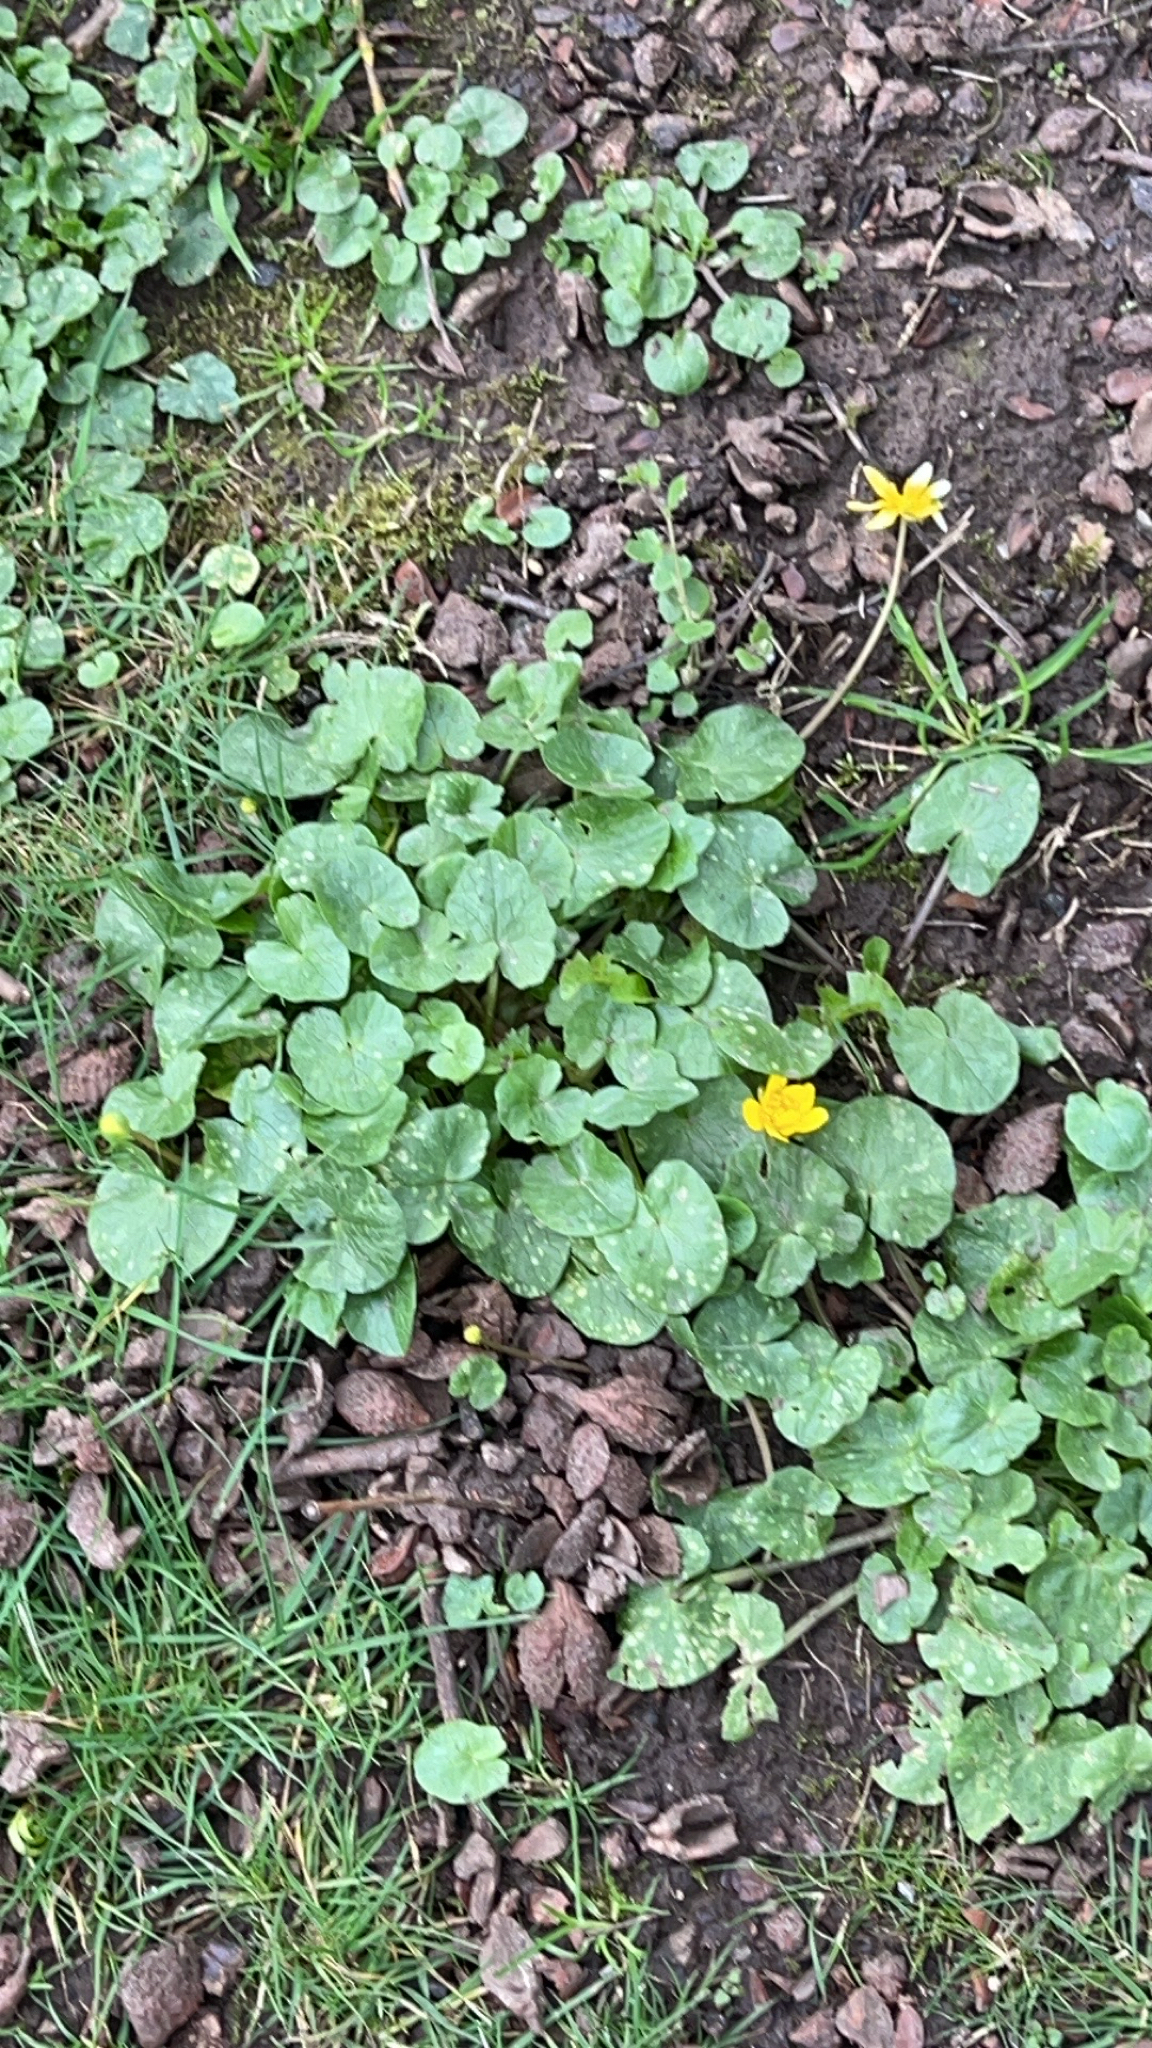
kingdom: Plantae
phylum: Tracheophyta
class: Magnoliopsida
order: Ranunculales
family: Ranunculaceae
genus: Ficaria
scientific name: Ficaria verna
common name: Lesser celandine
